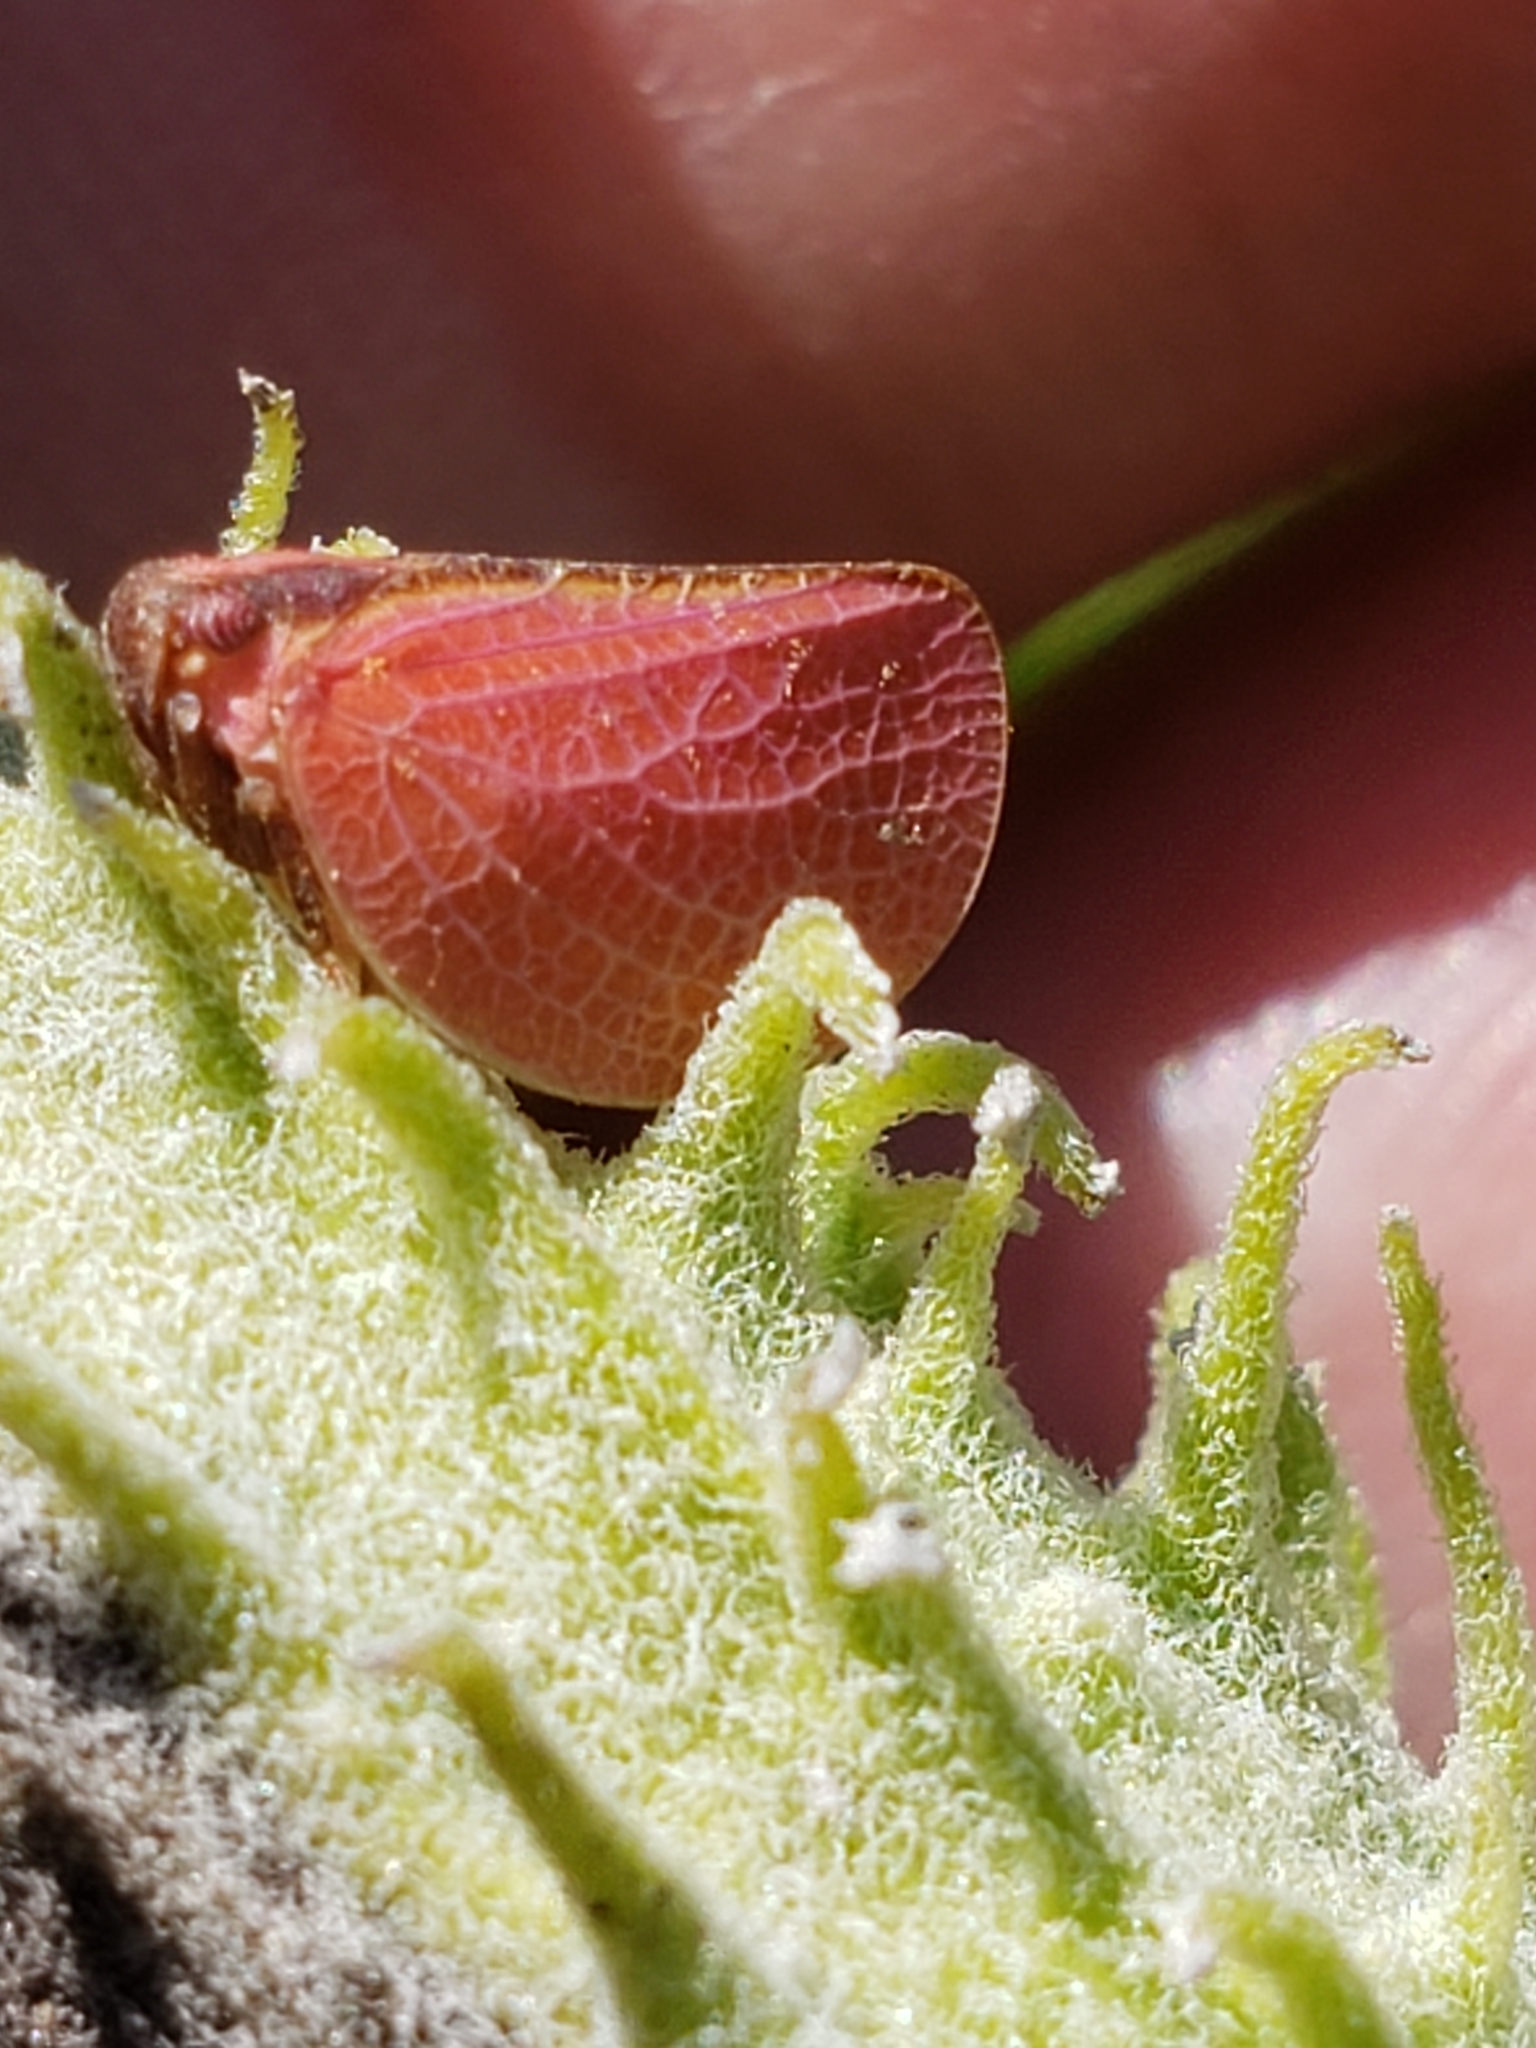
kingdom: Animalia
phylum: Arthropoda
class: Insecta
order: Hemiptera
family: Acanaloniidae
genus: Acanalonia
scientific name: Acanalonia bivittata
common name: Two-striped planthopper
